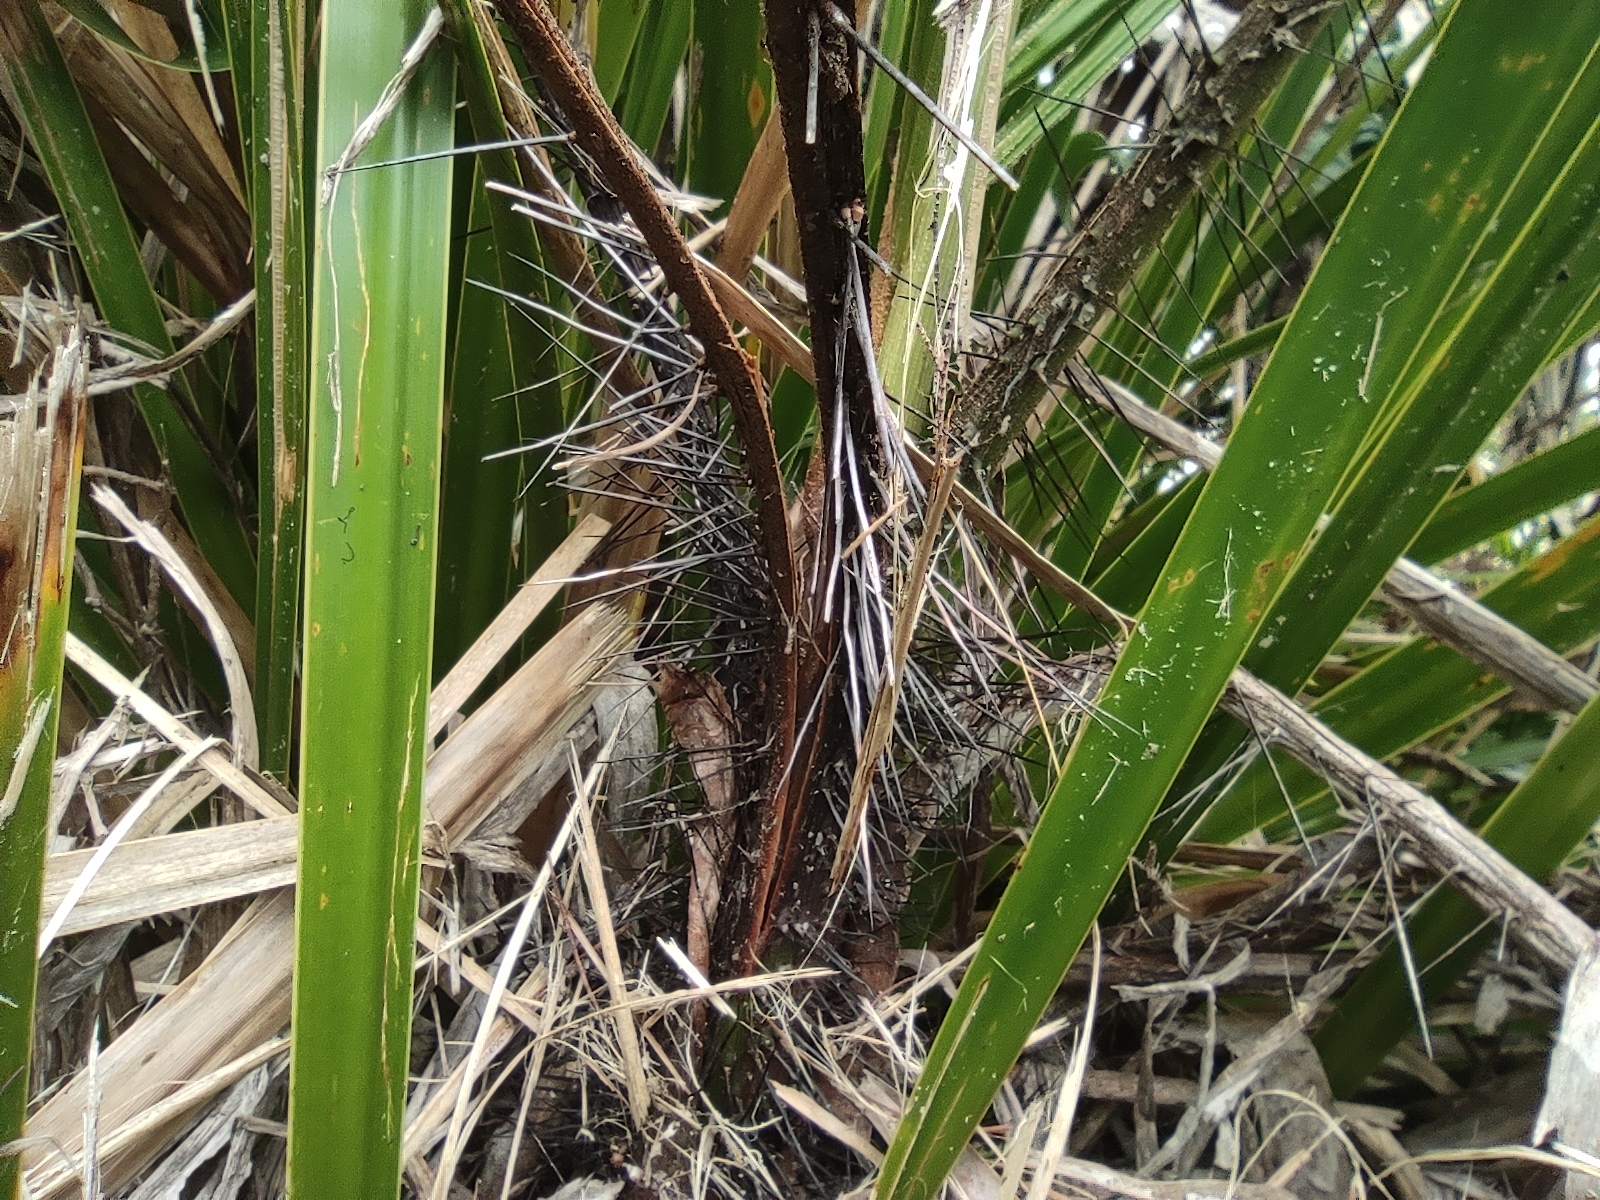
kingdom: Plantae
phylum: Tracheophyta
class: Liliopsida
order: Arecales
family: Arecaceae
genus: Acanthophoenix
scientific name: Acanthophoenix crinita
